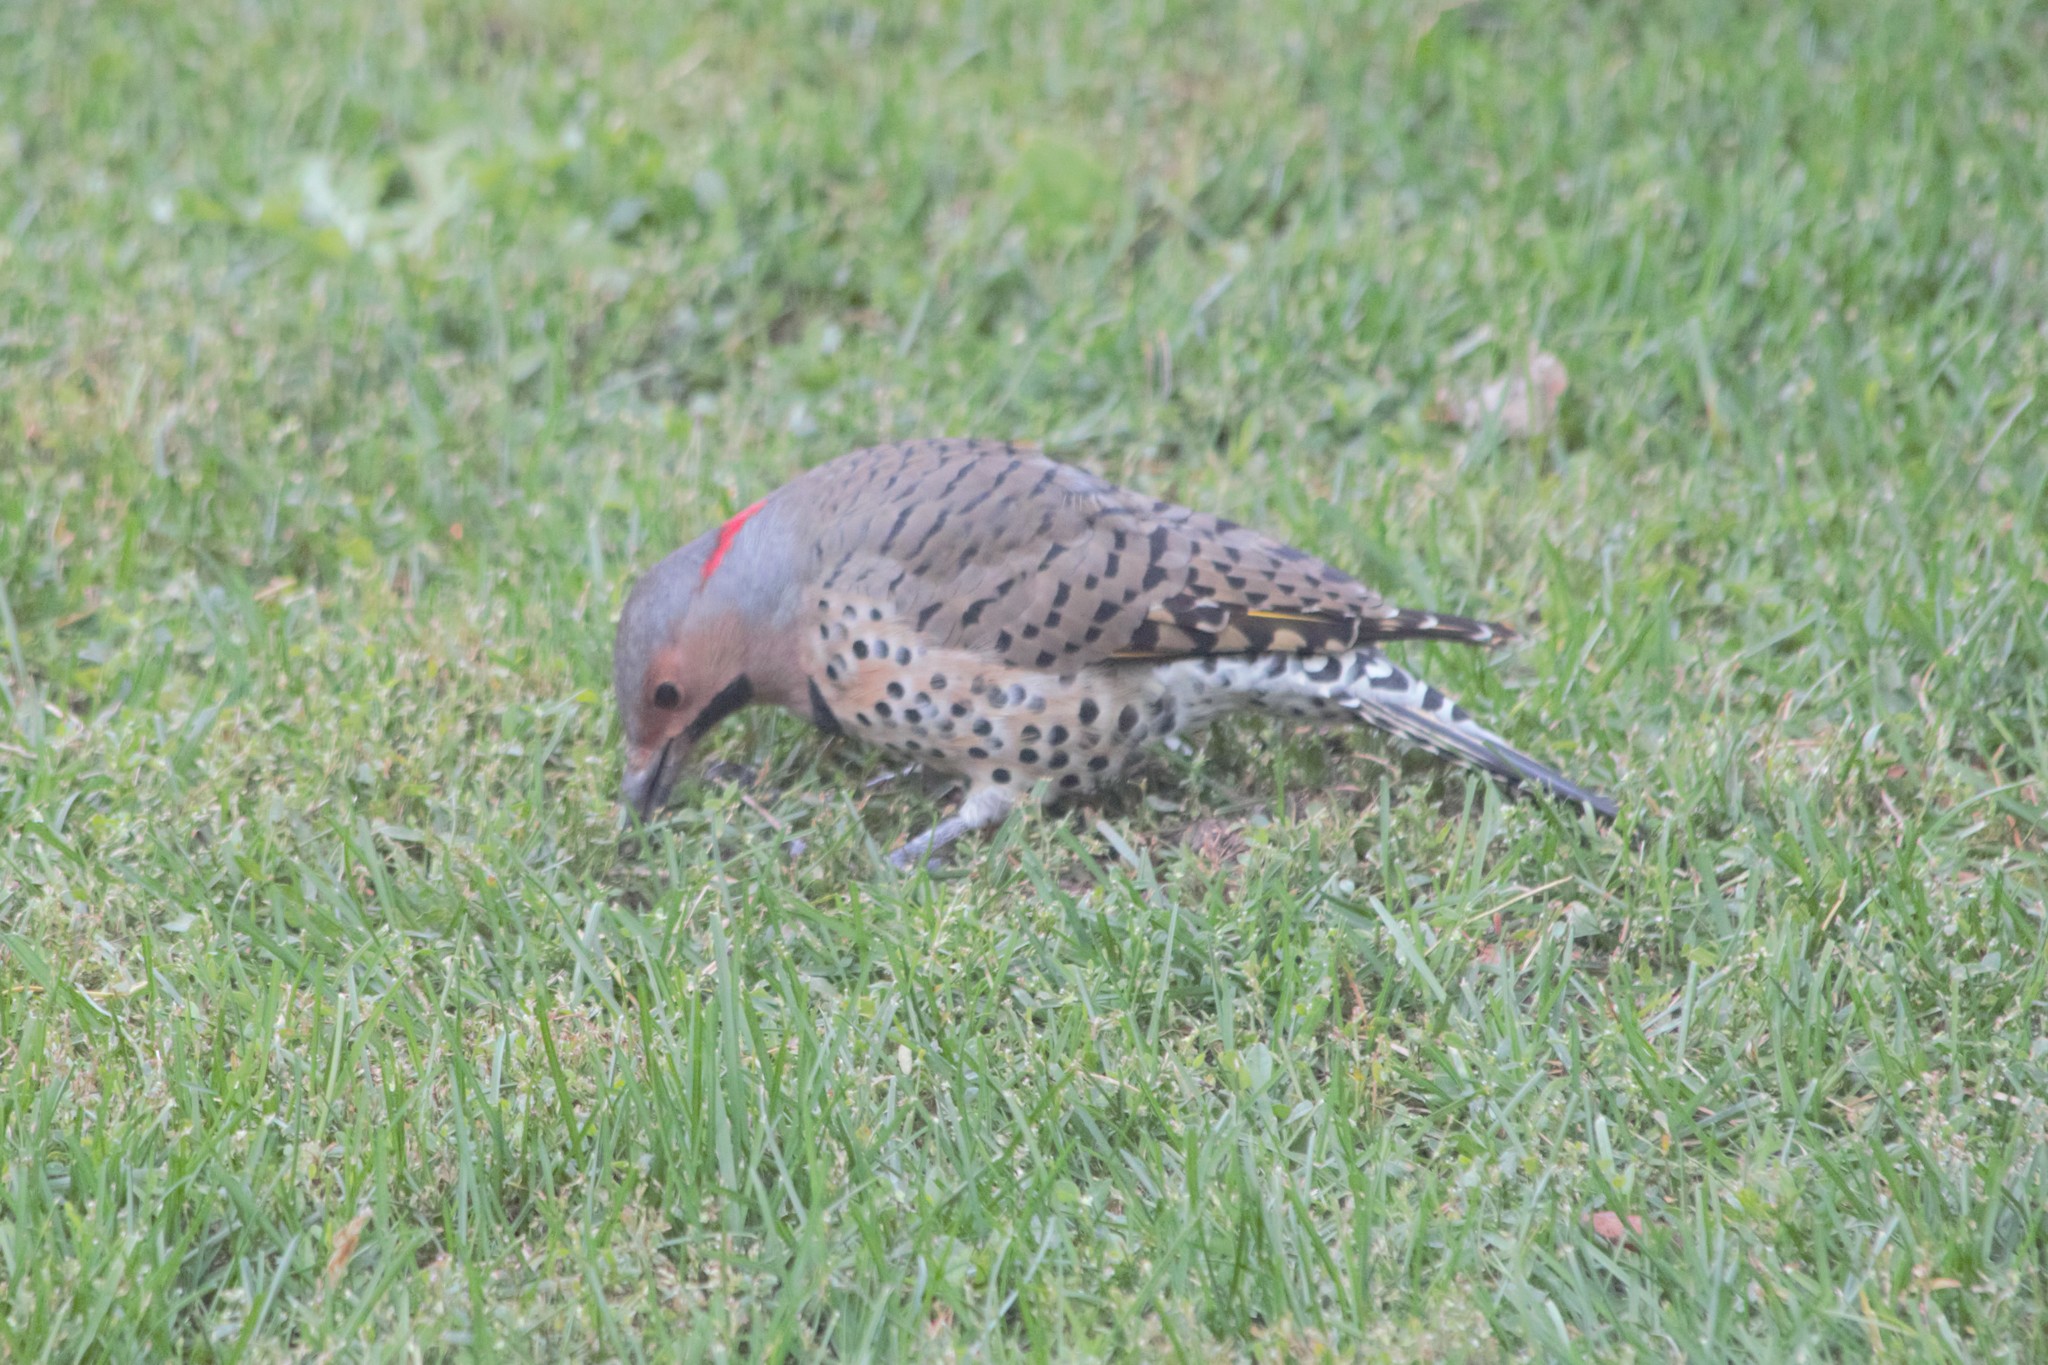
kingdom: Animalia
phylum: Chordata
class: Aves
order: Piciformes
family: Picidae
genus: Colaptes
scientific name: Colaptes auratus
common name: Northern flicker
